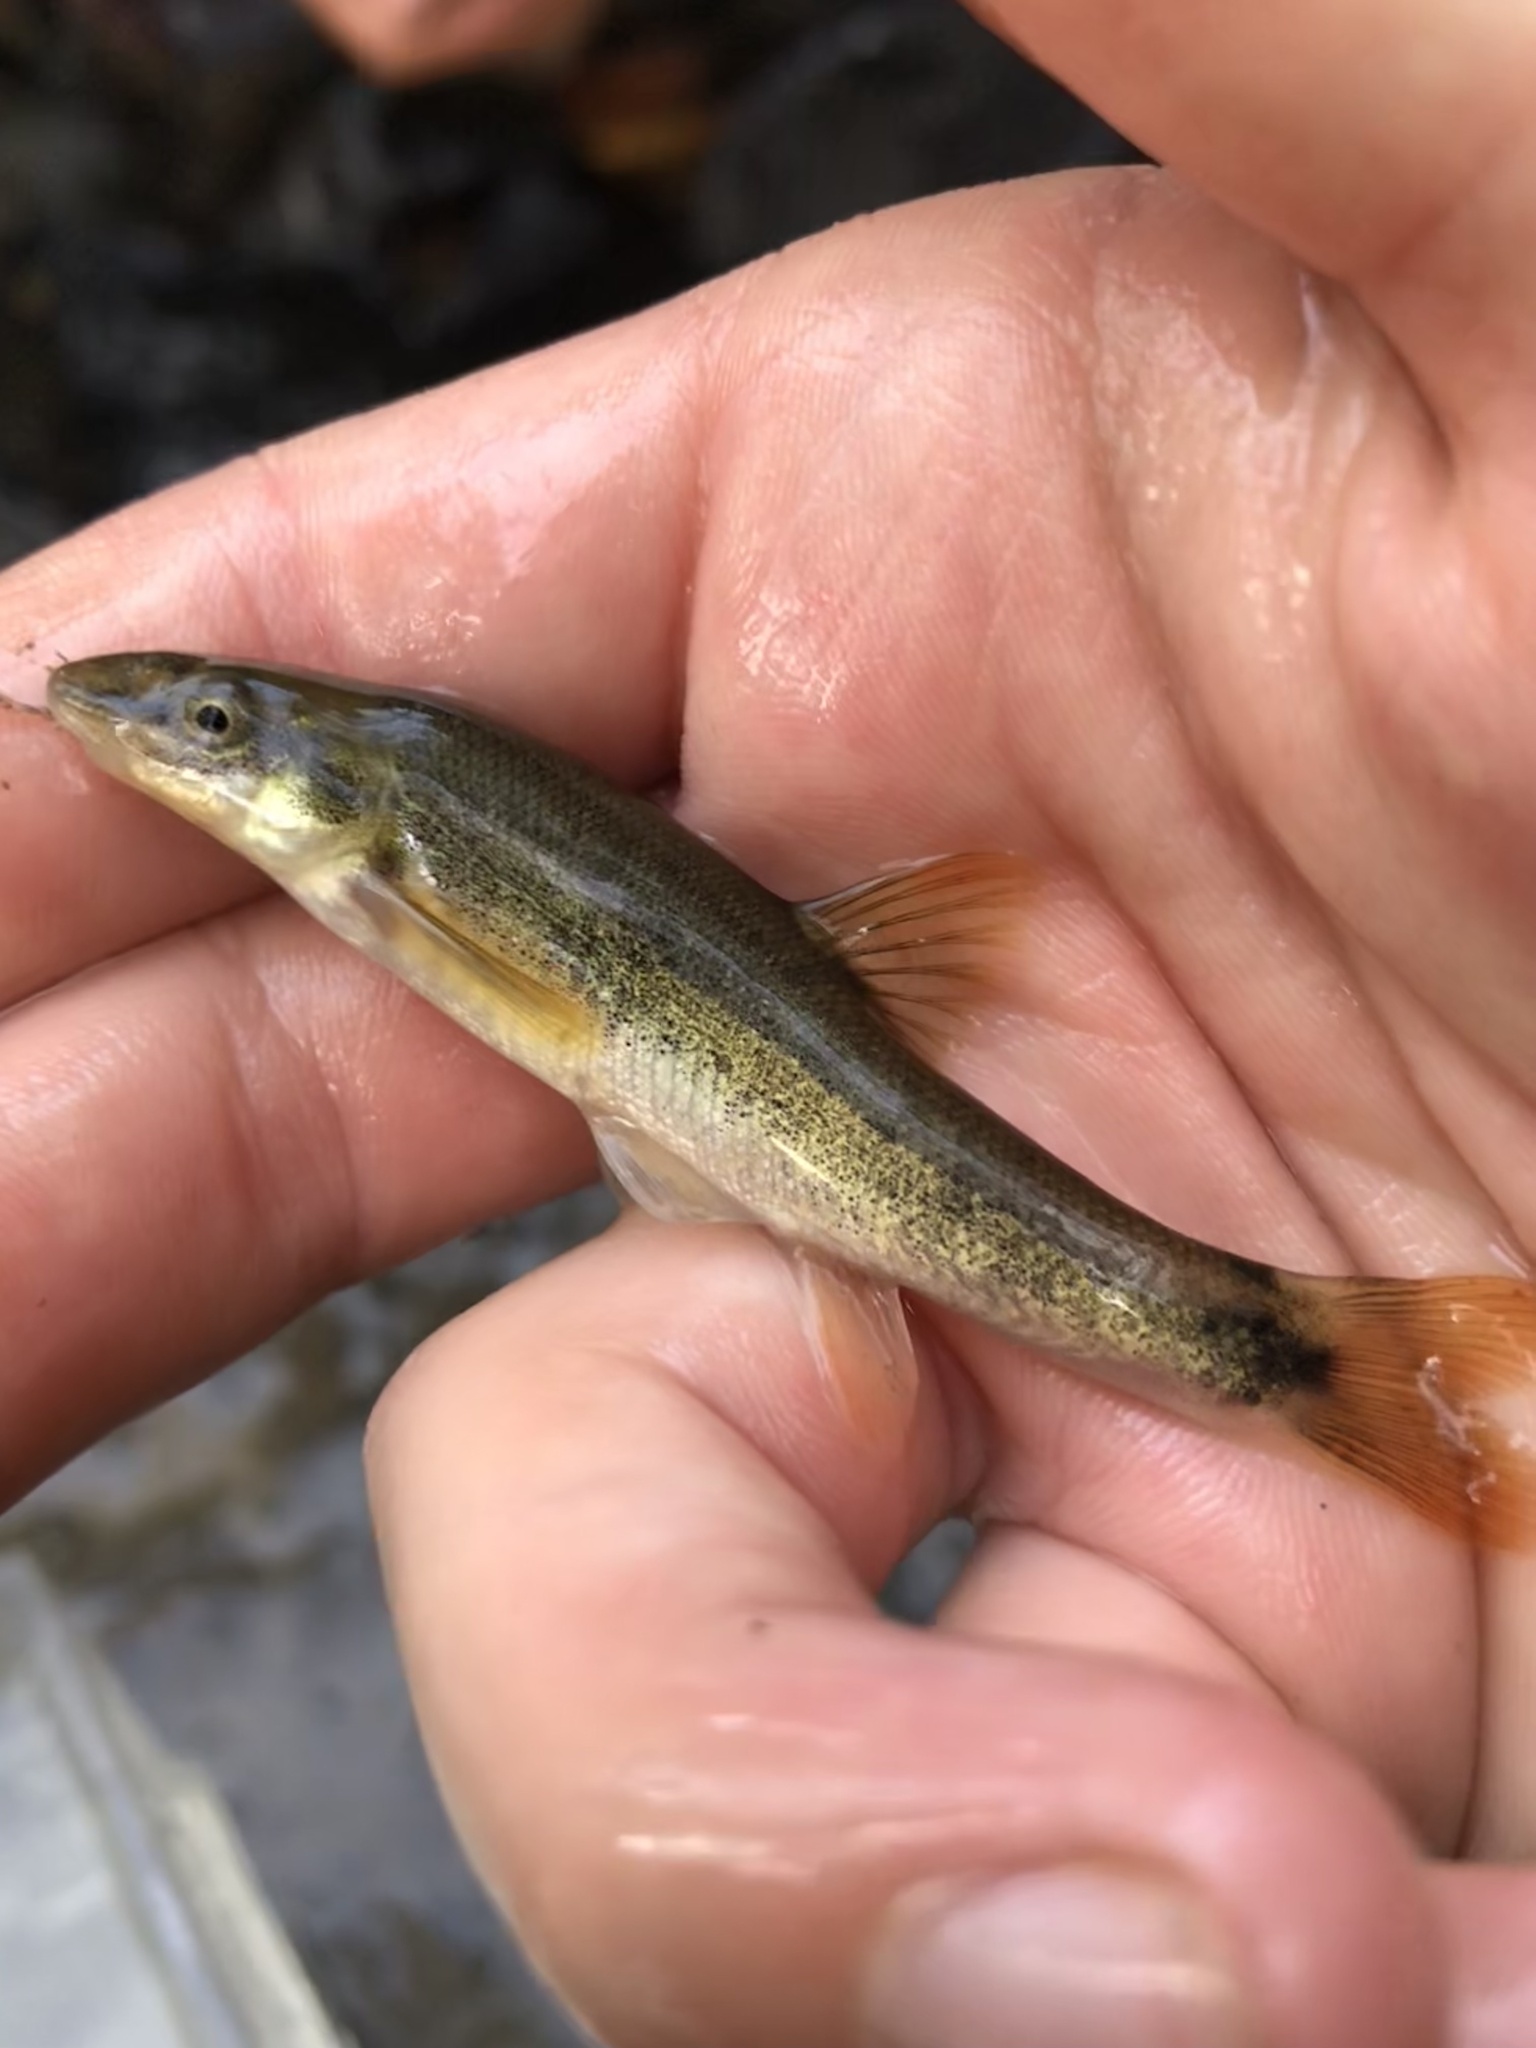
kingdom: Animalia
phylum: Chordata
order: Cypriniformes
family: Cyprinidae
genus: Rhinichthys
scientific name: Rhinichthys cataractae
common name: Longnose dace
